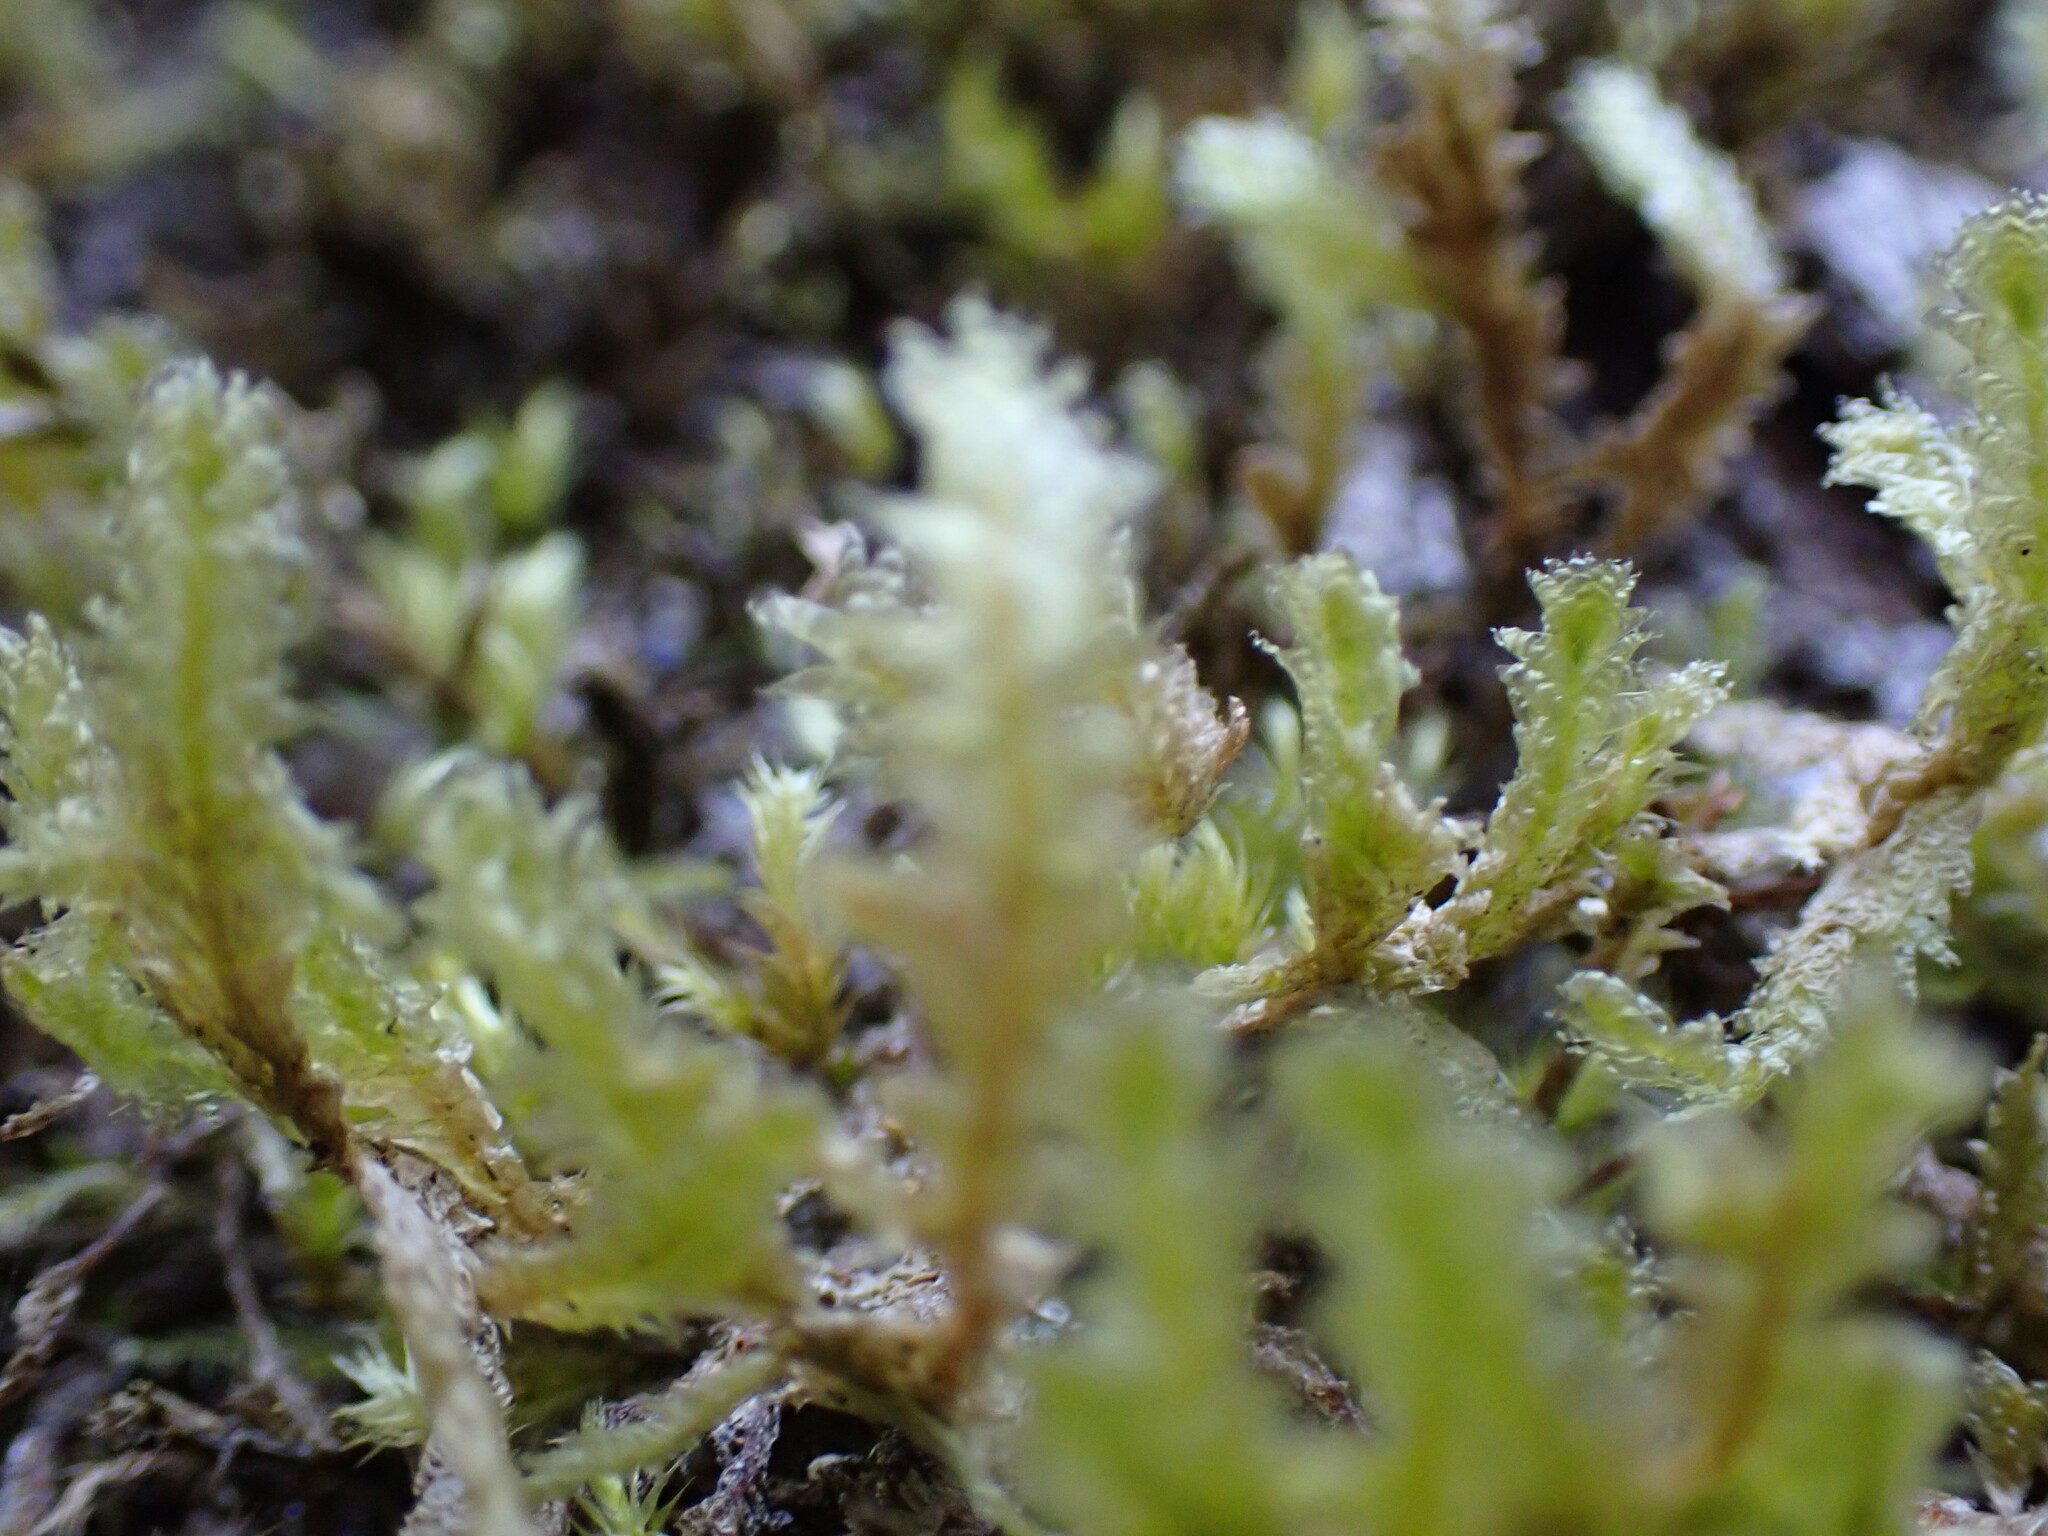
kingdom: Plantae
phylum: Bryophyta
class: Bryopsida
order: Hypnales
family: Neckeraceae
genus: Neckera
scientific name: Neckera douglasii
